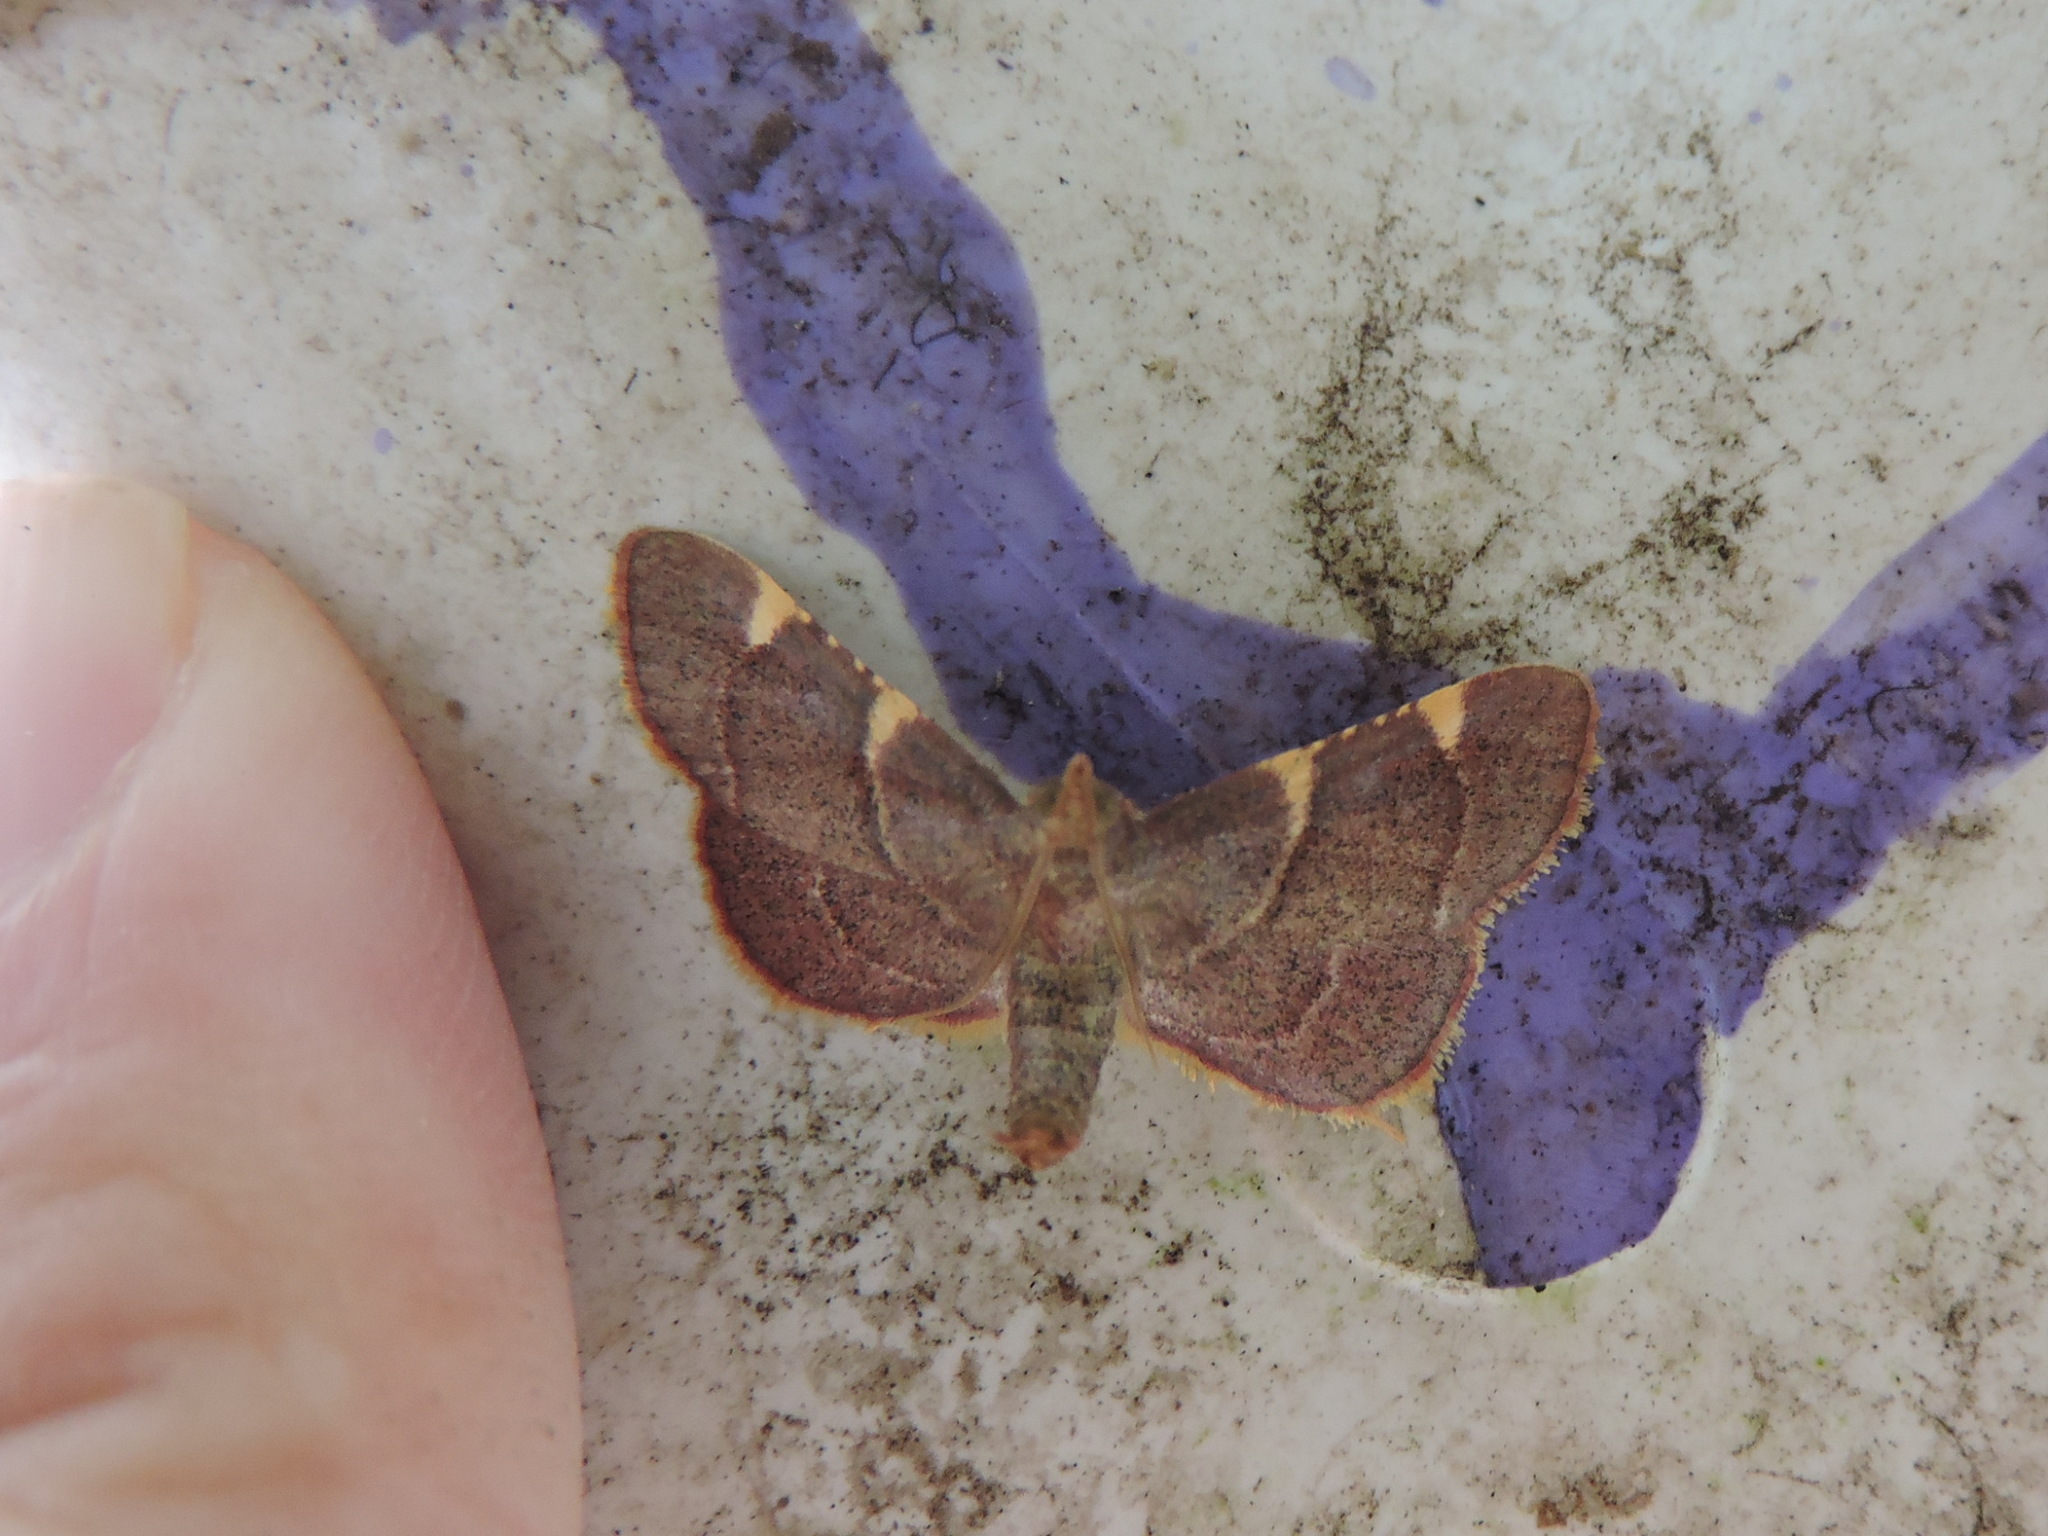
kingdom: Animalia
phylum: Arthropoda
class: Insecta
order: Lepidoptera
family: Pyralidae
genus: Hypsopygia
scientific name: Hypsopygia olinalis
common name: Yellow-fringed dolichomia moth
